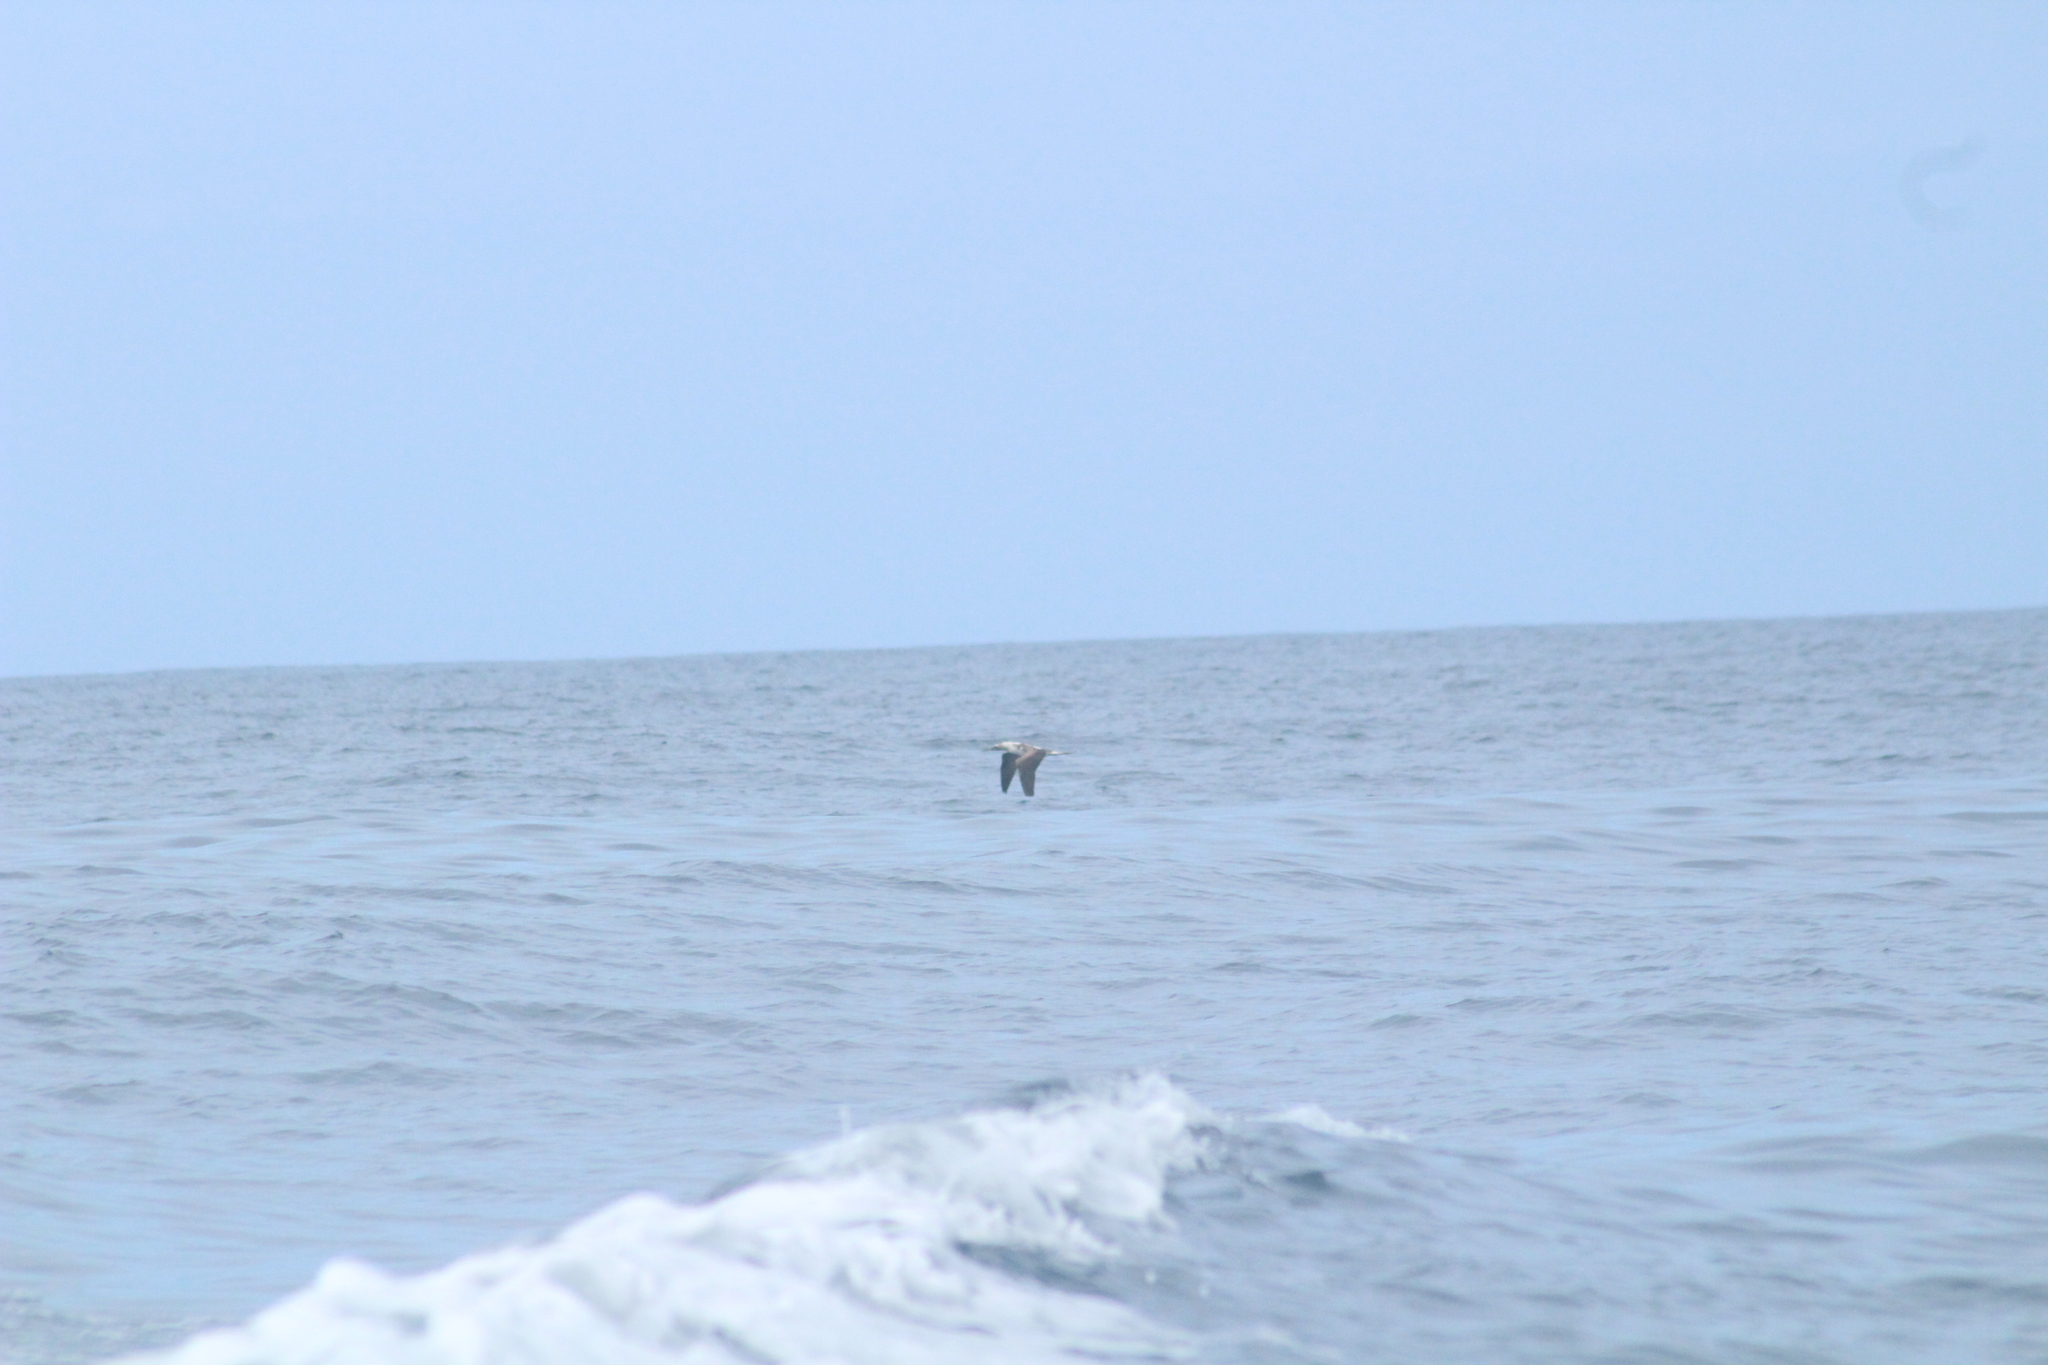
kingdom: Animalia
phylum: Chordata
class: Aves
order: Suliformes
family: Sulidae
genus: Sula
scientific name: Sula nebouxii
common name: Blue-footed booby
